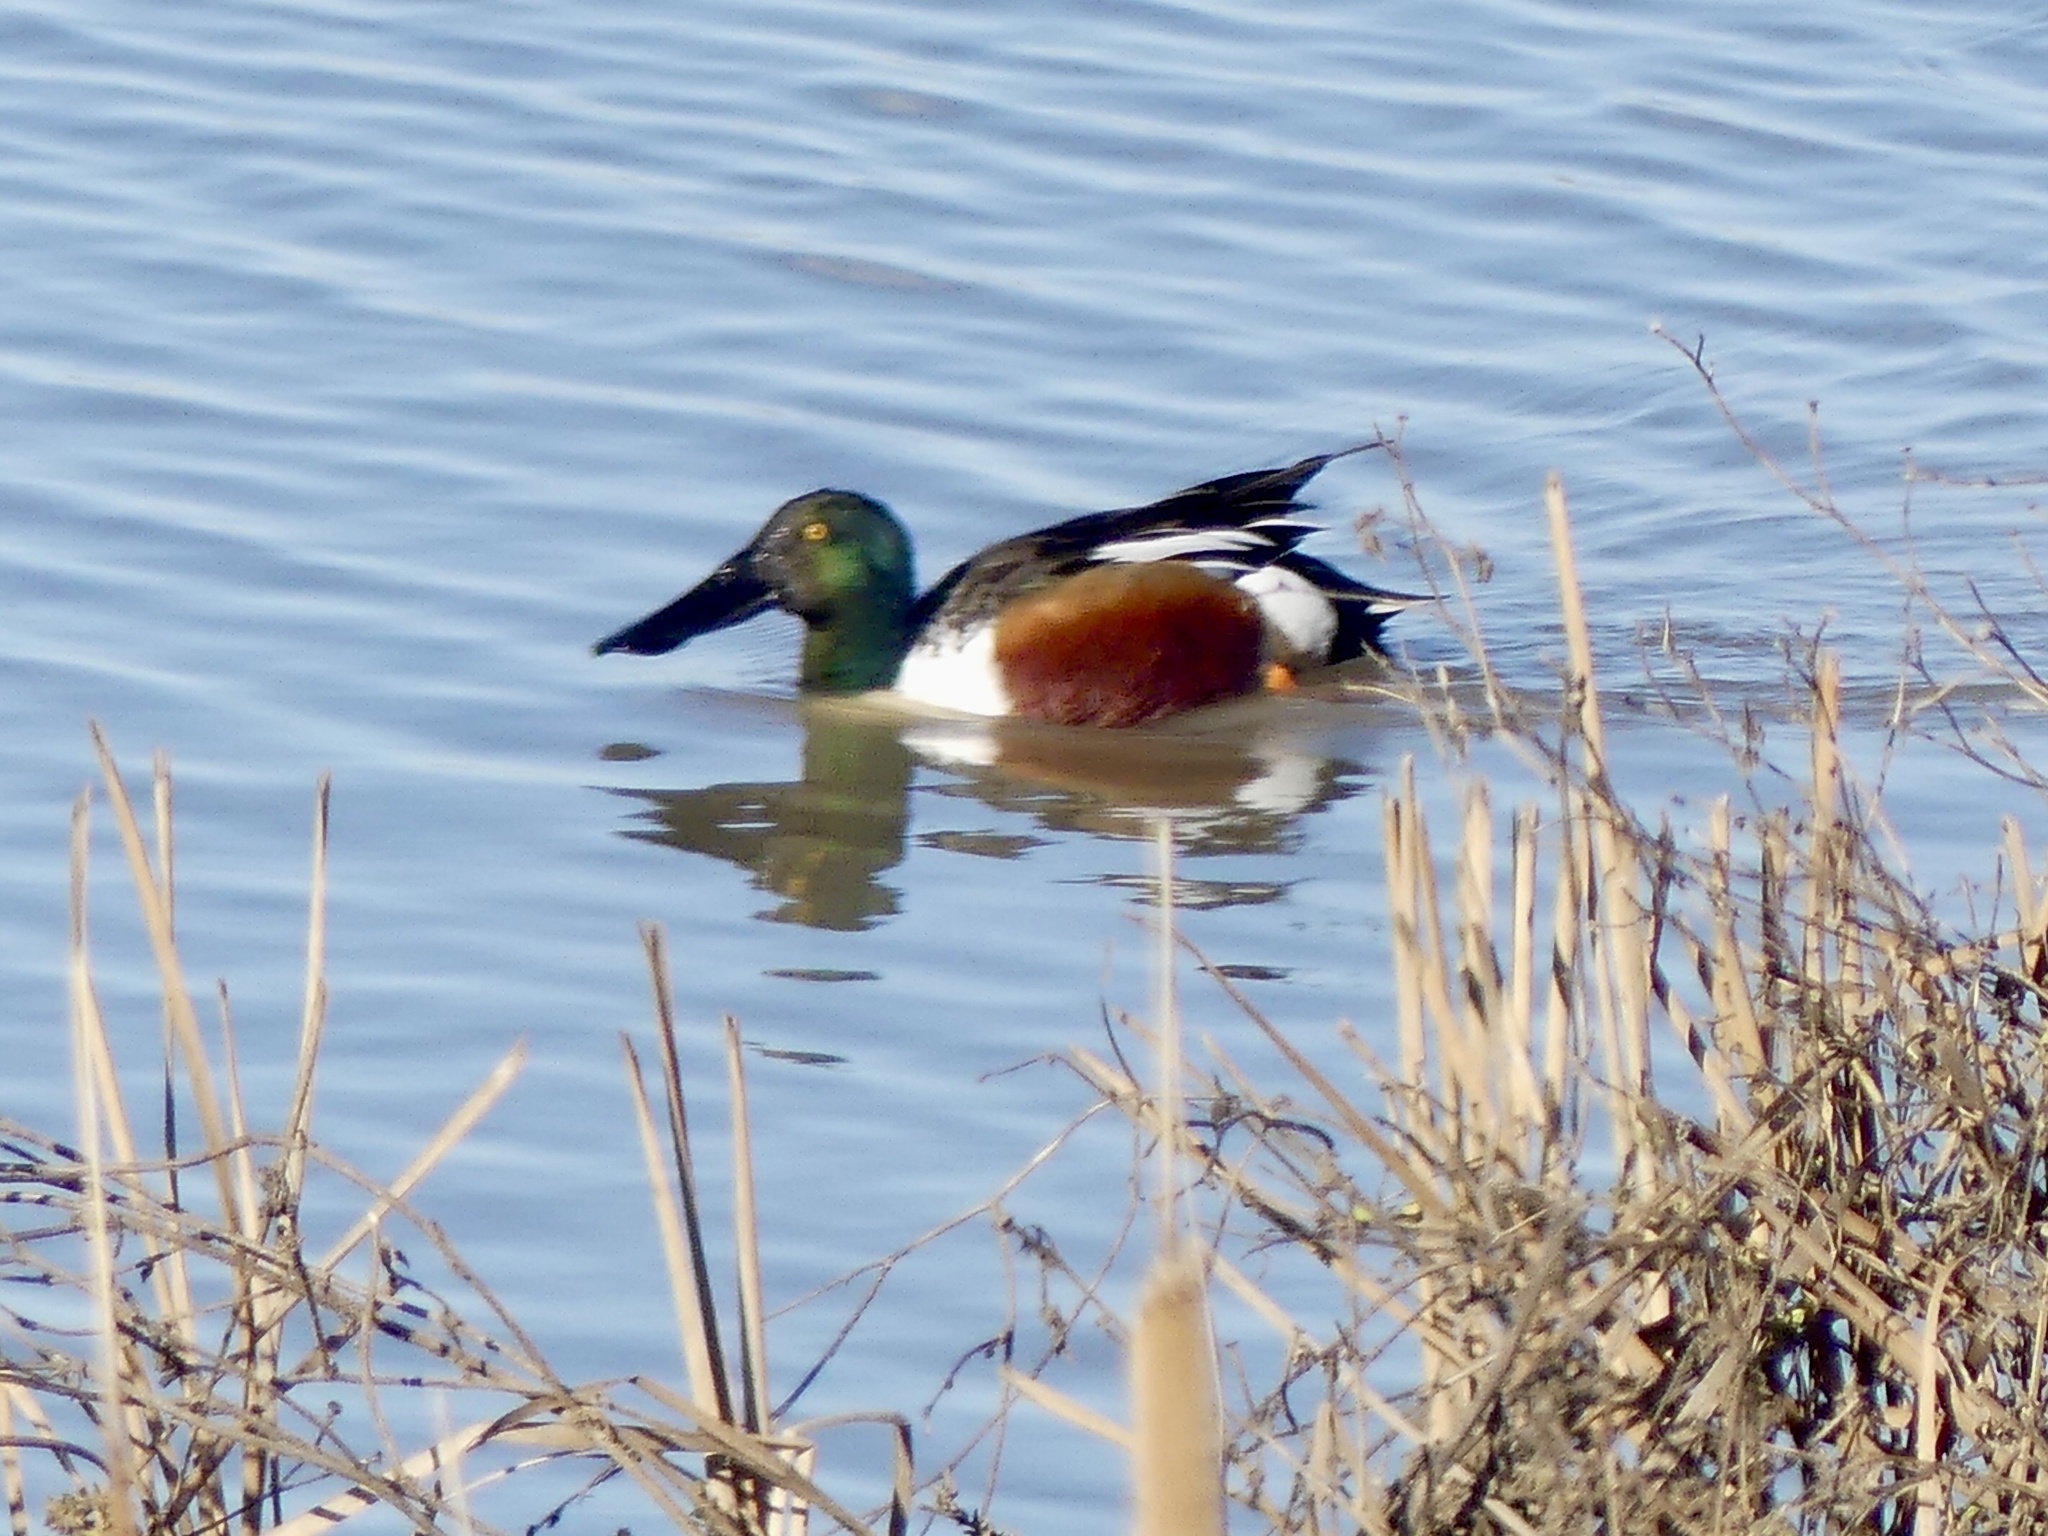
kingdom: Animalia
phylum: Chordata
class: Aves
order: Anseriformes
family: Anatidae
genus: Spatula
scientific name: Spatula clypeata
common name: Northern shoveler
